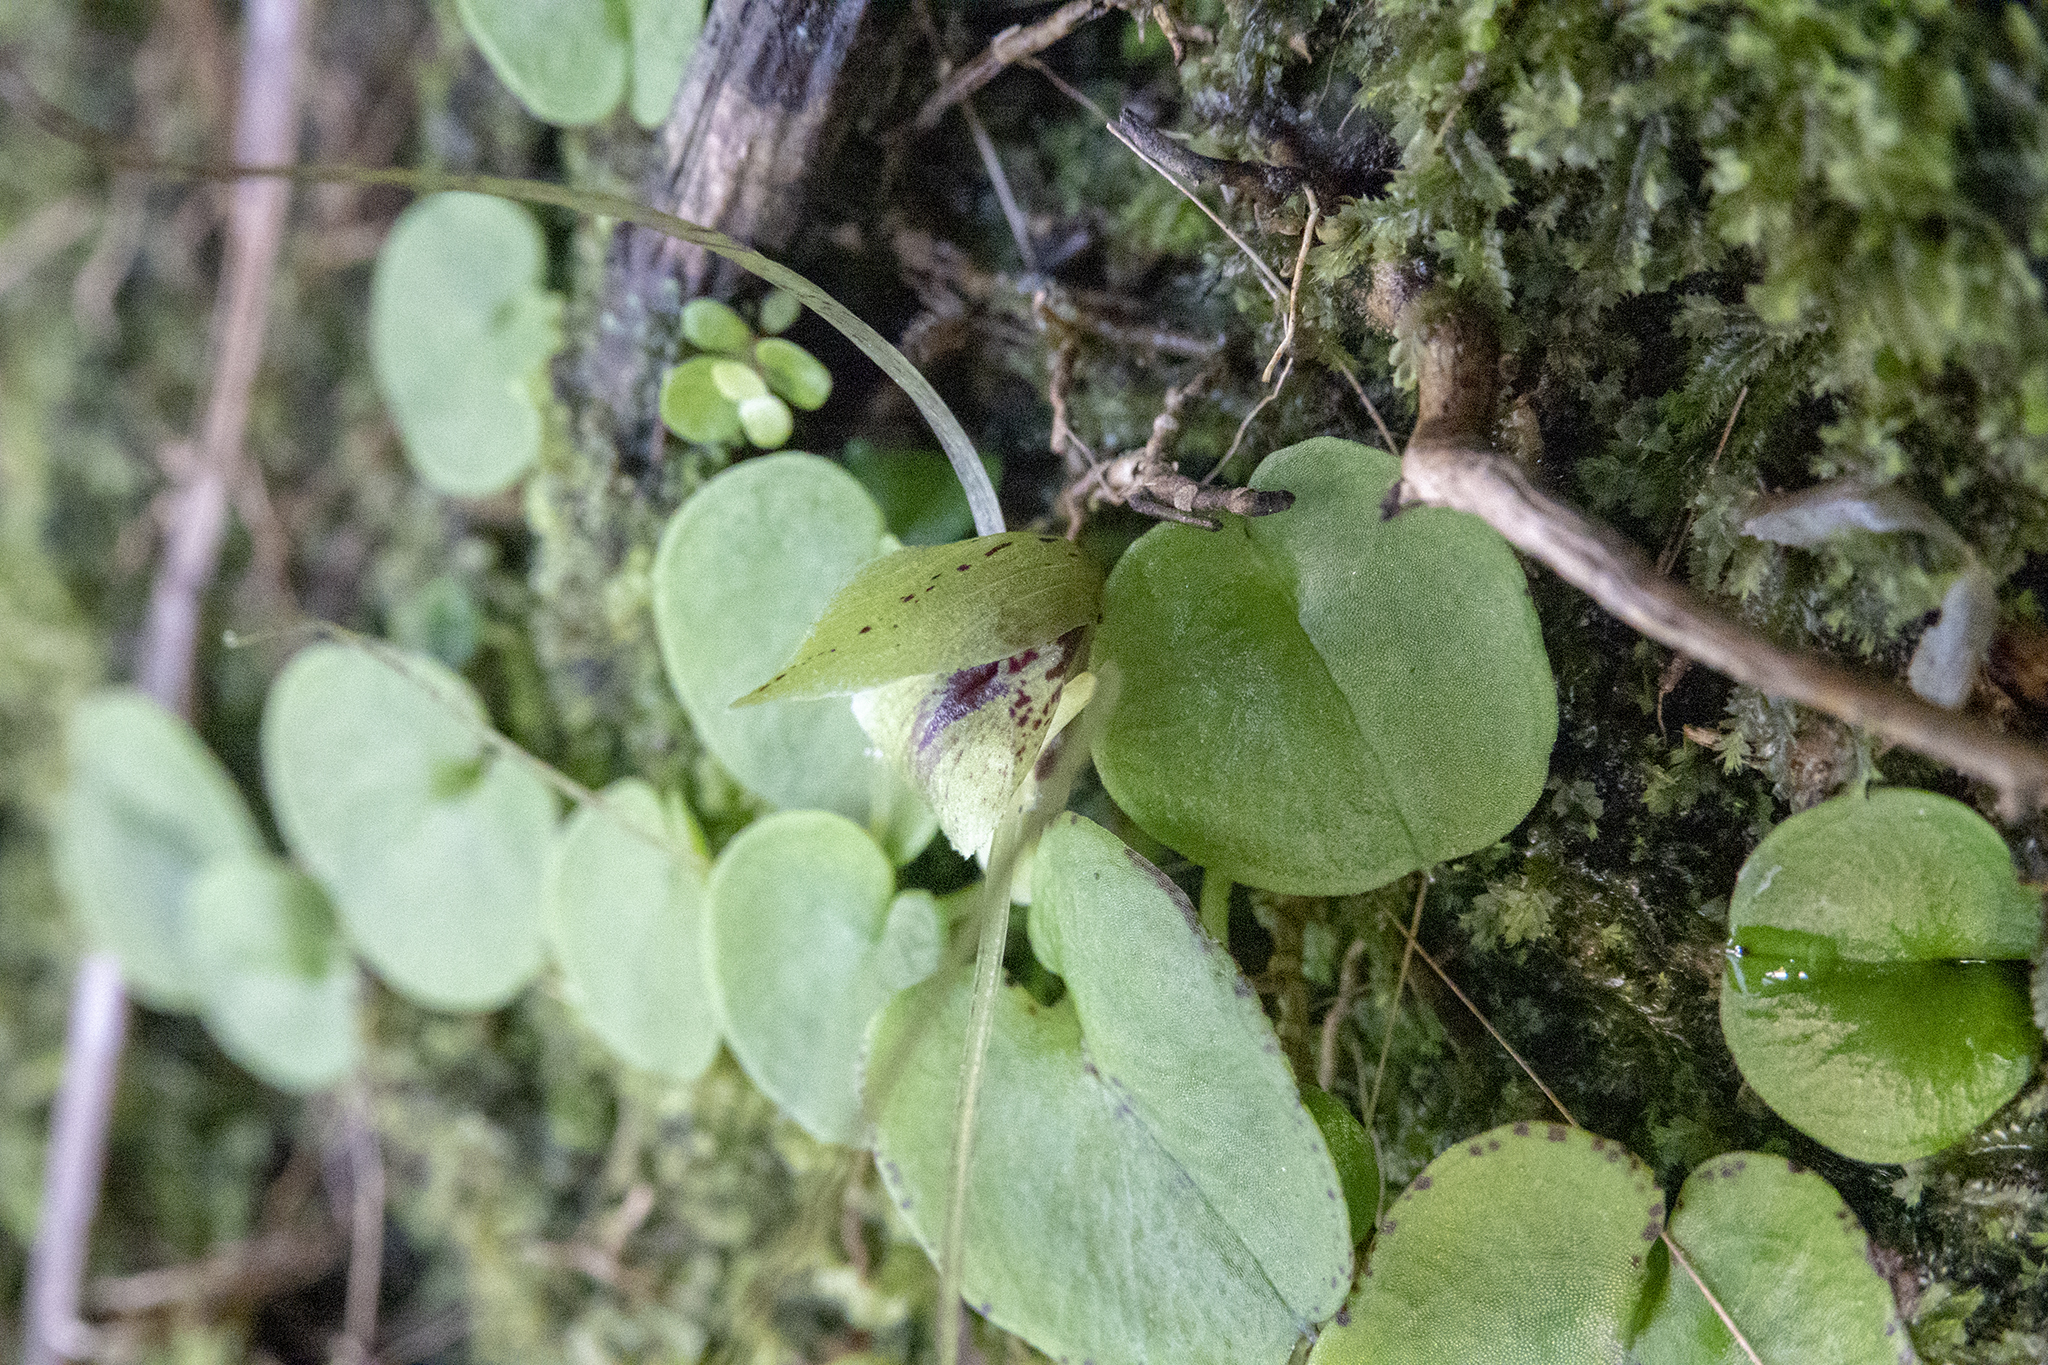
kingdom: Plantae
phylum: Tracheophyta
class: Liliopsida
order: Asparagales
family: Orchidaceae
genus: Corybas
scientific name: Corybas hatchii
